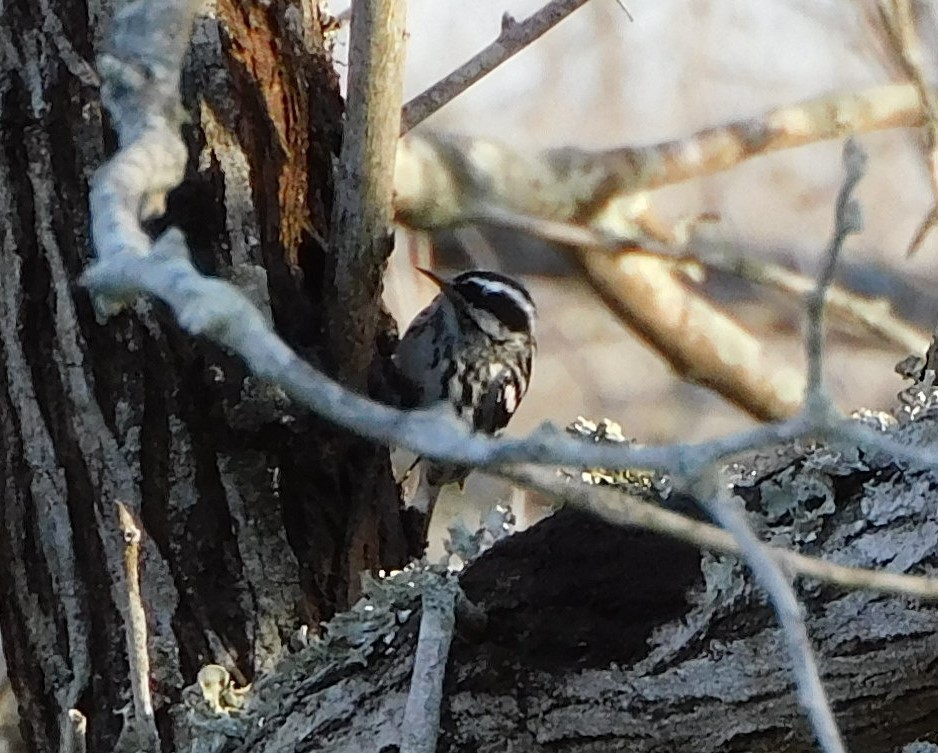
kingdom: Animalia
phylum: Chordata
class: Aves
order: Passeriformes
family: Parulidae
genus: Mniotilta
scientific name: Mniotilta varia
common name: Black-and-white warbler
